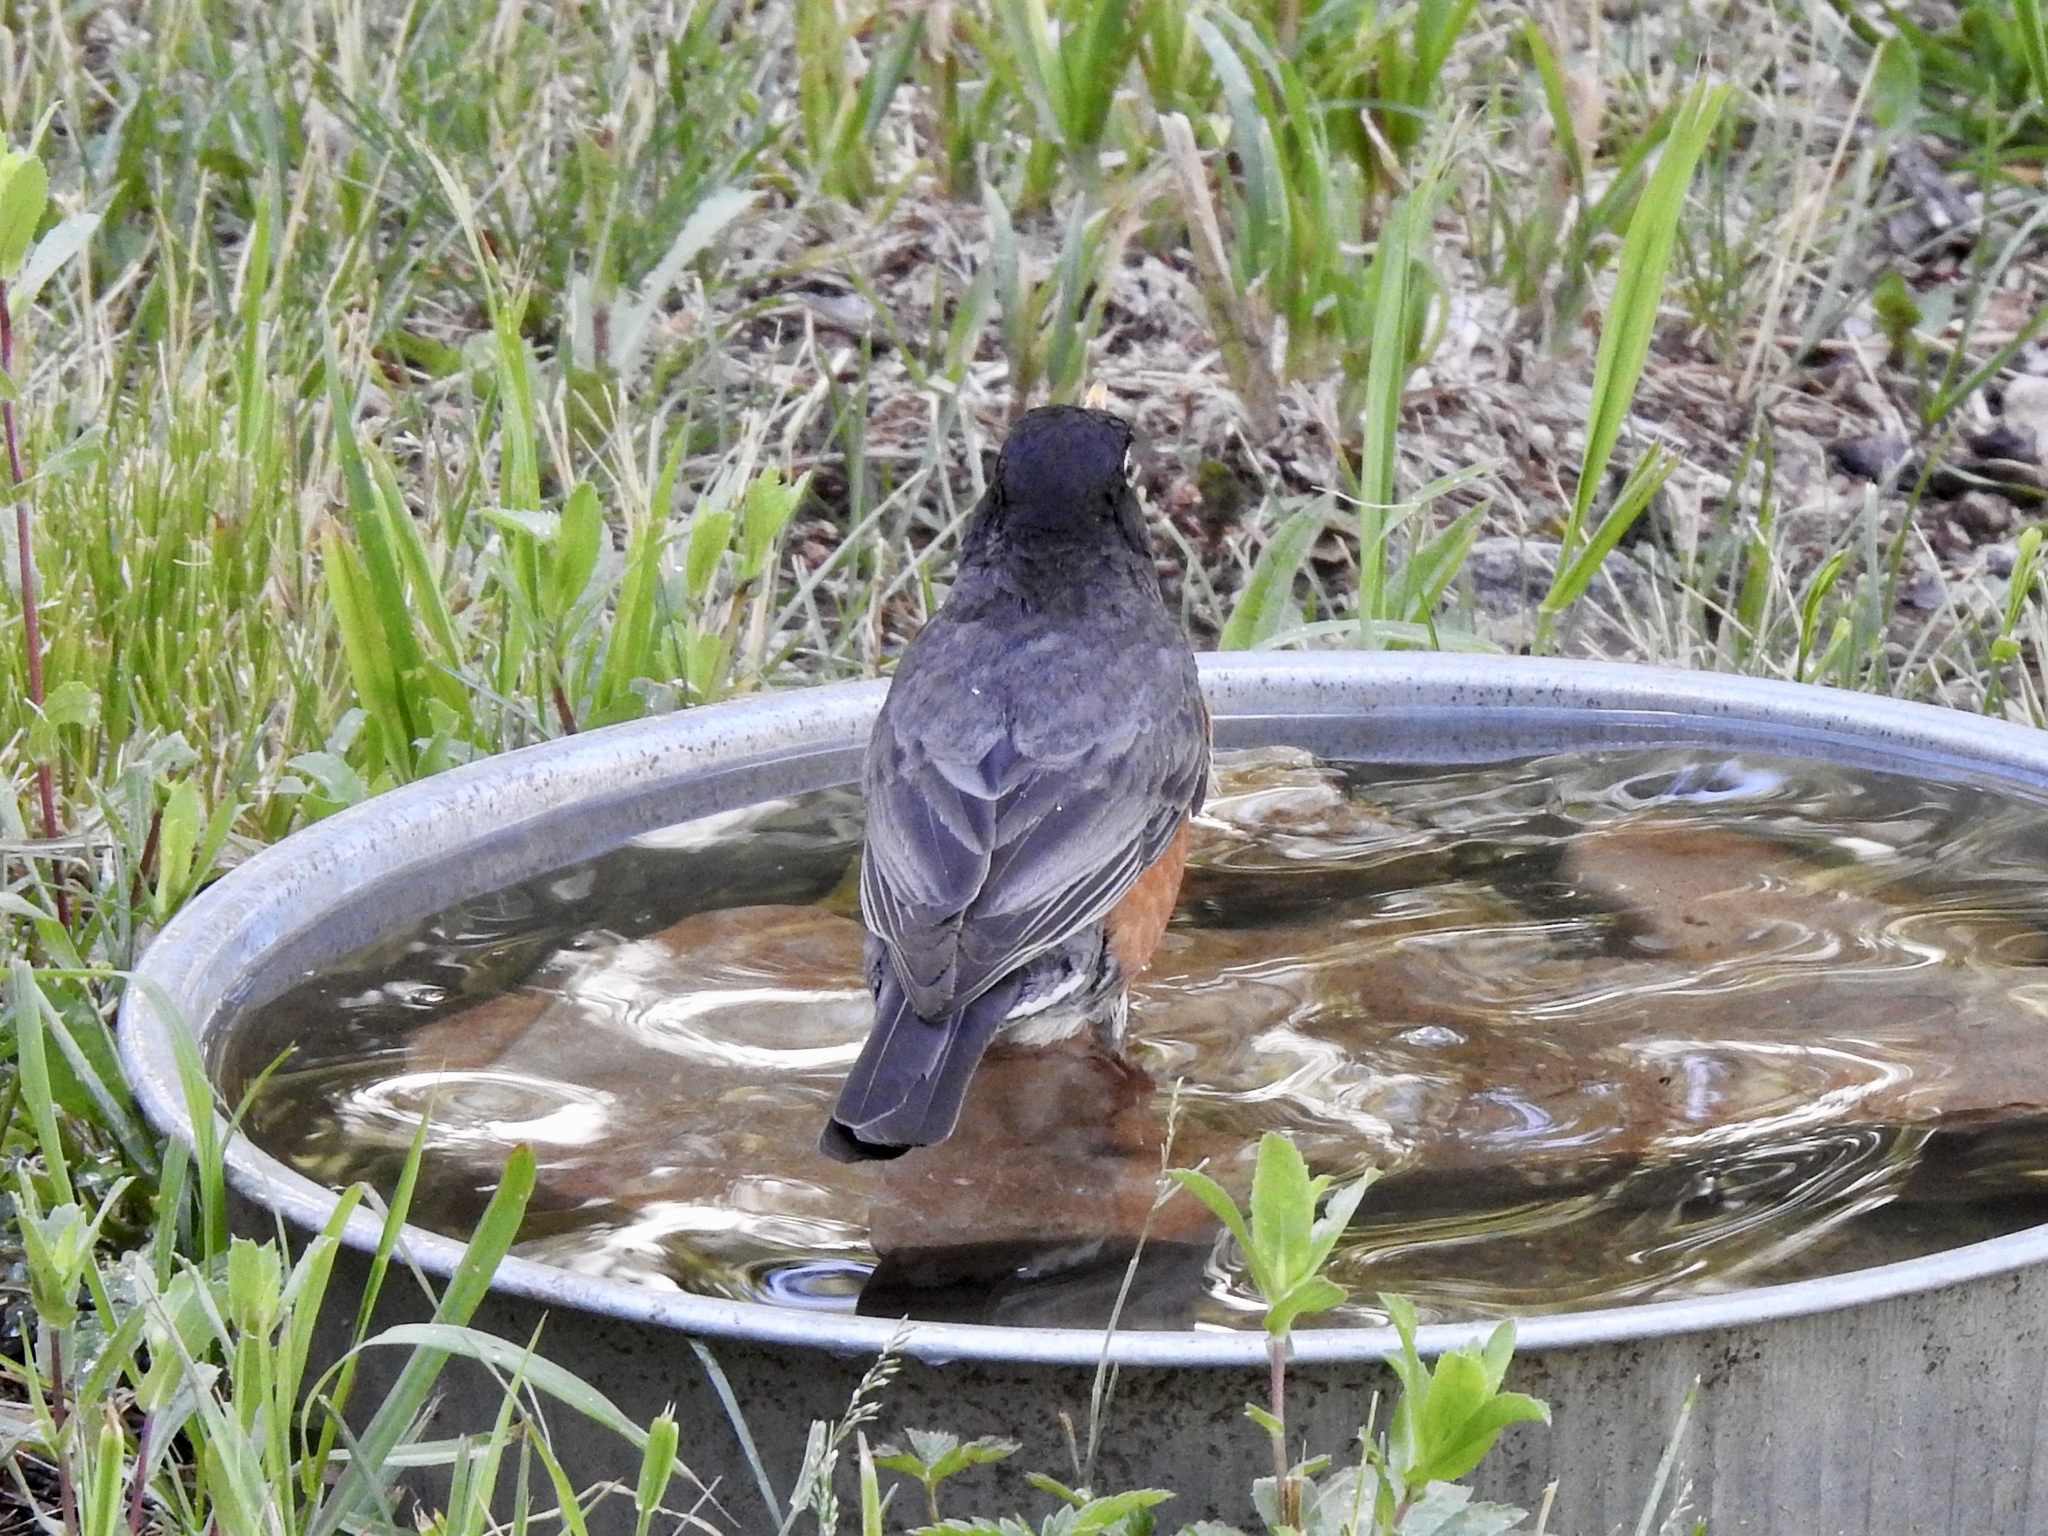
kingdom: Animalia
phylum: Chordata
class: Aves
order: Passeriformes
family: Turdidae
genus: Turdus
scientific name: Turdus migratorius
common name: American robin
